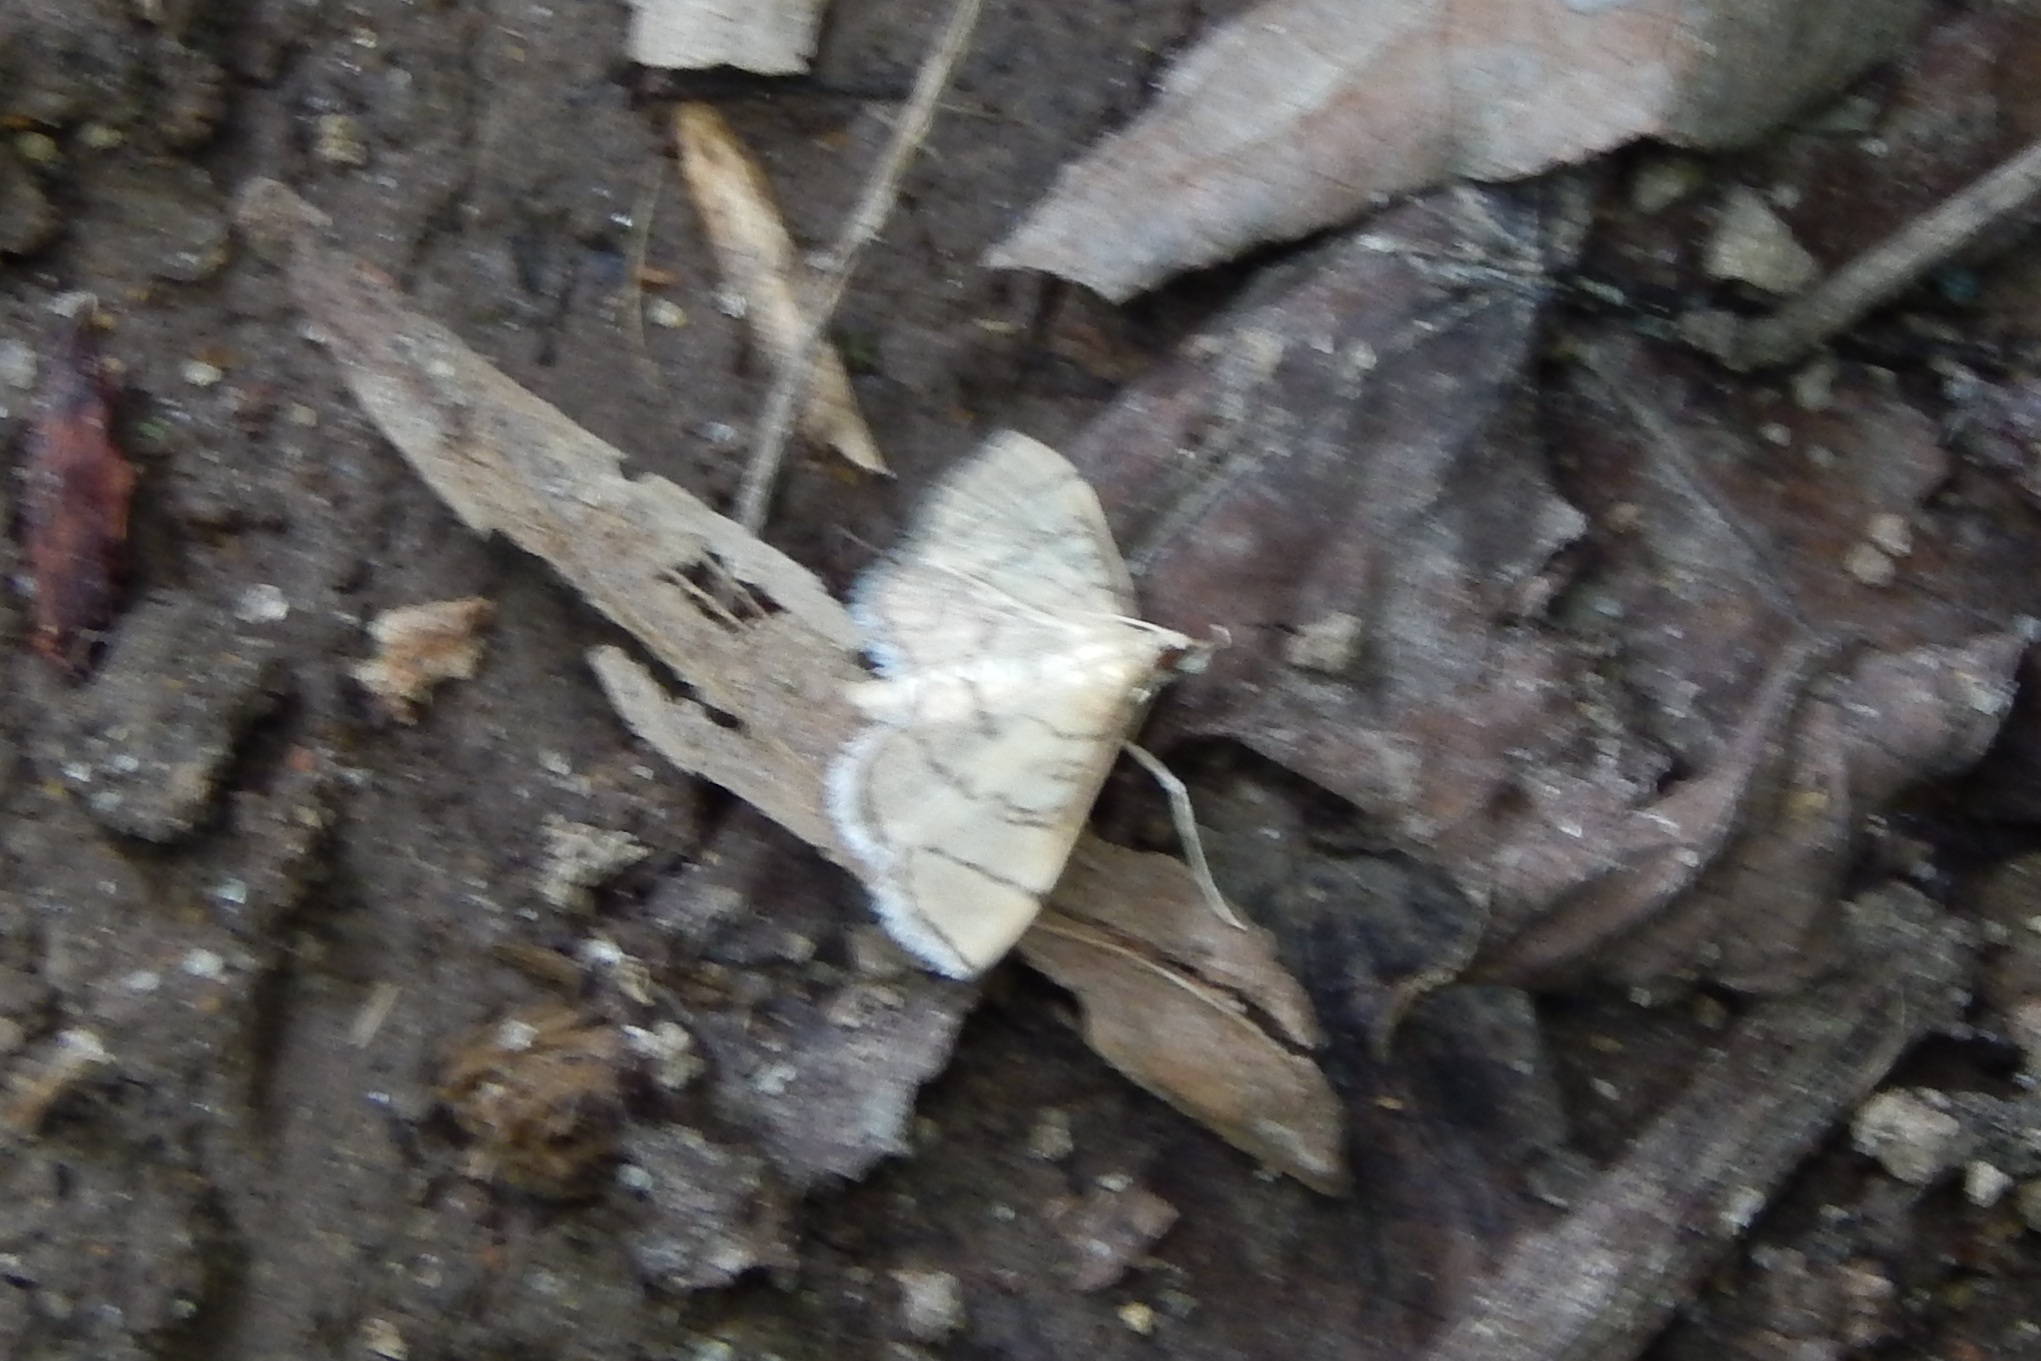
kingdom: Animalia
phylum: Arthropoda
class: Insecta
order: Lepidoptera
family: Crambidae
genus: Lamprosema
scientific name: Lamprosema Blepharomastix ranalis
